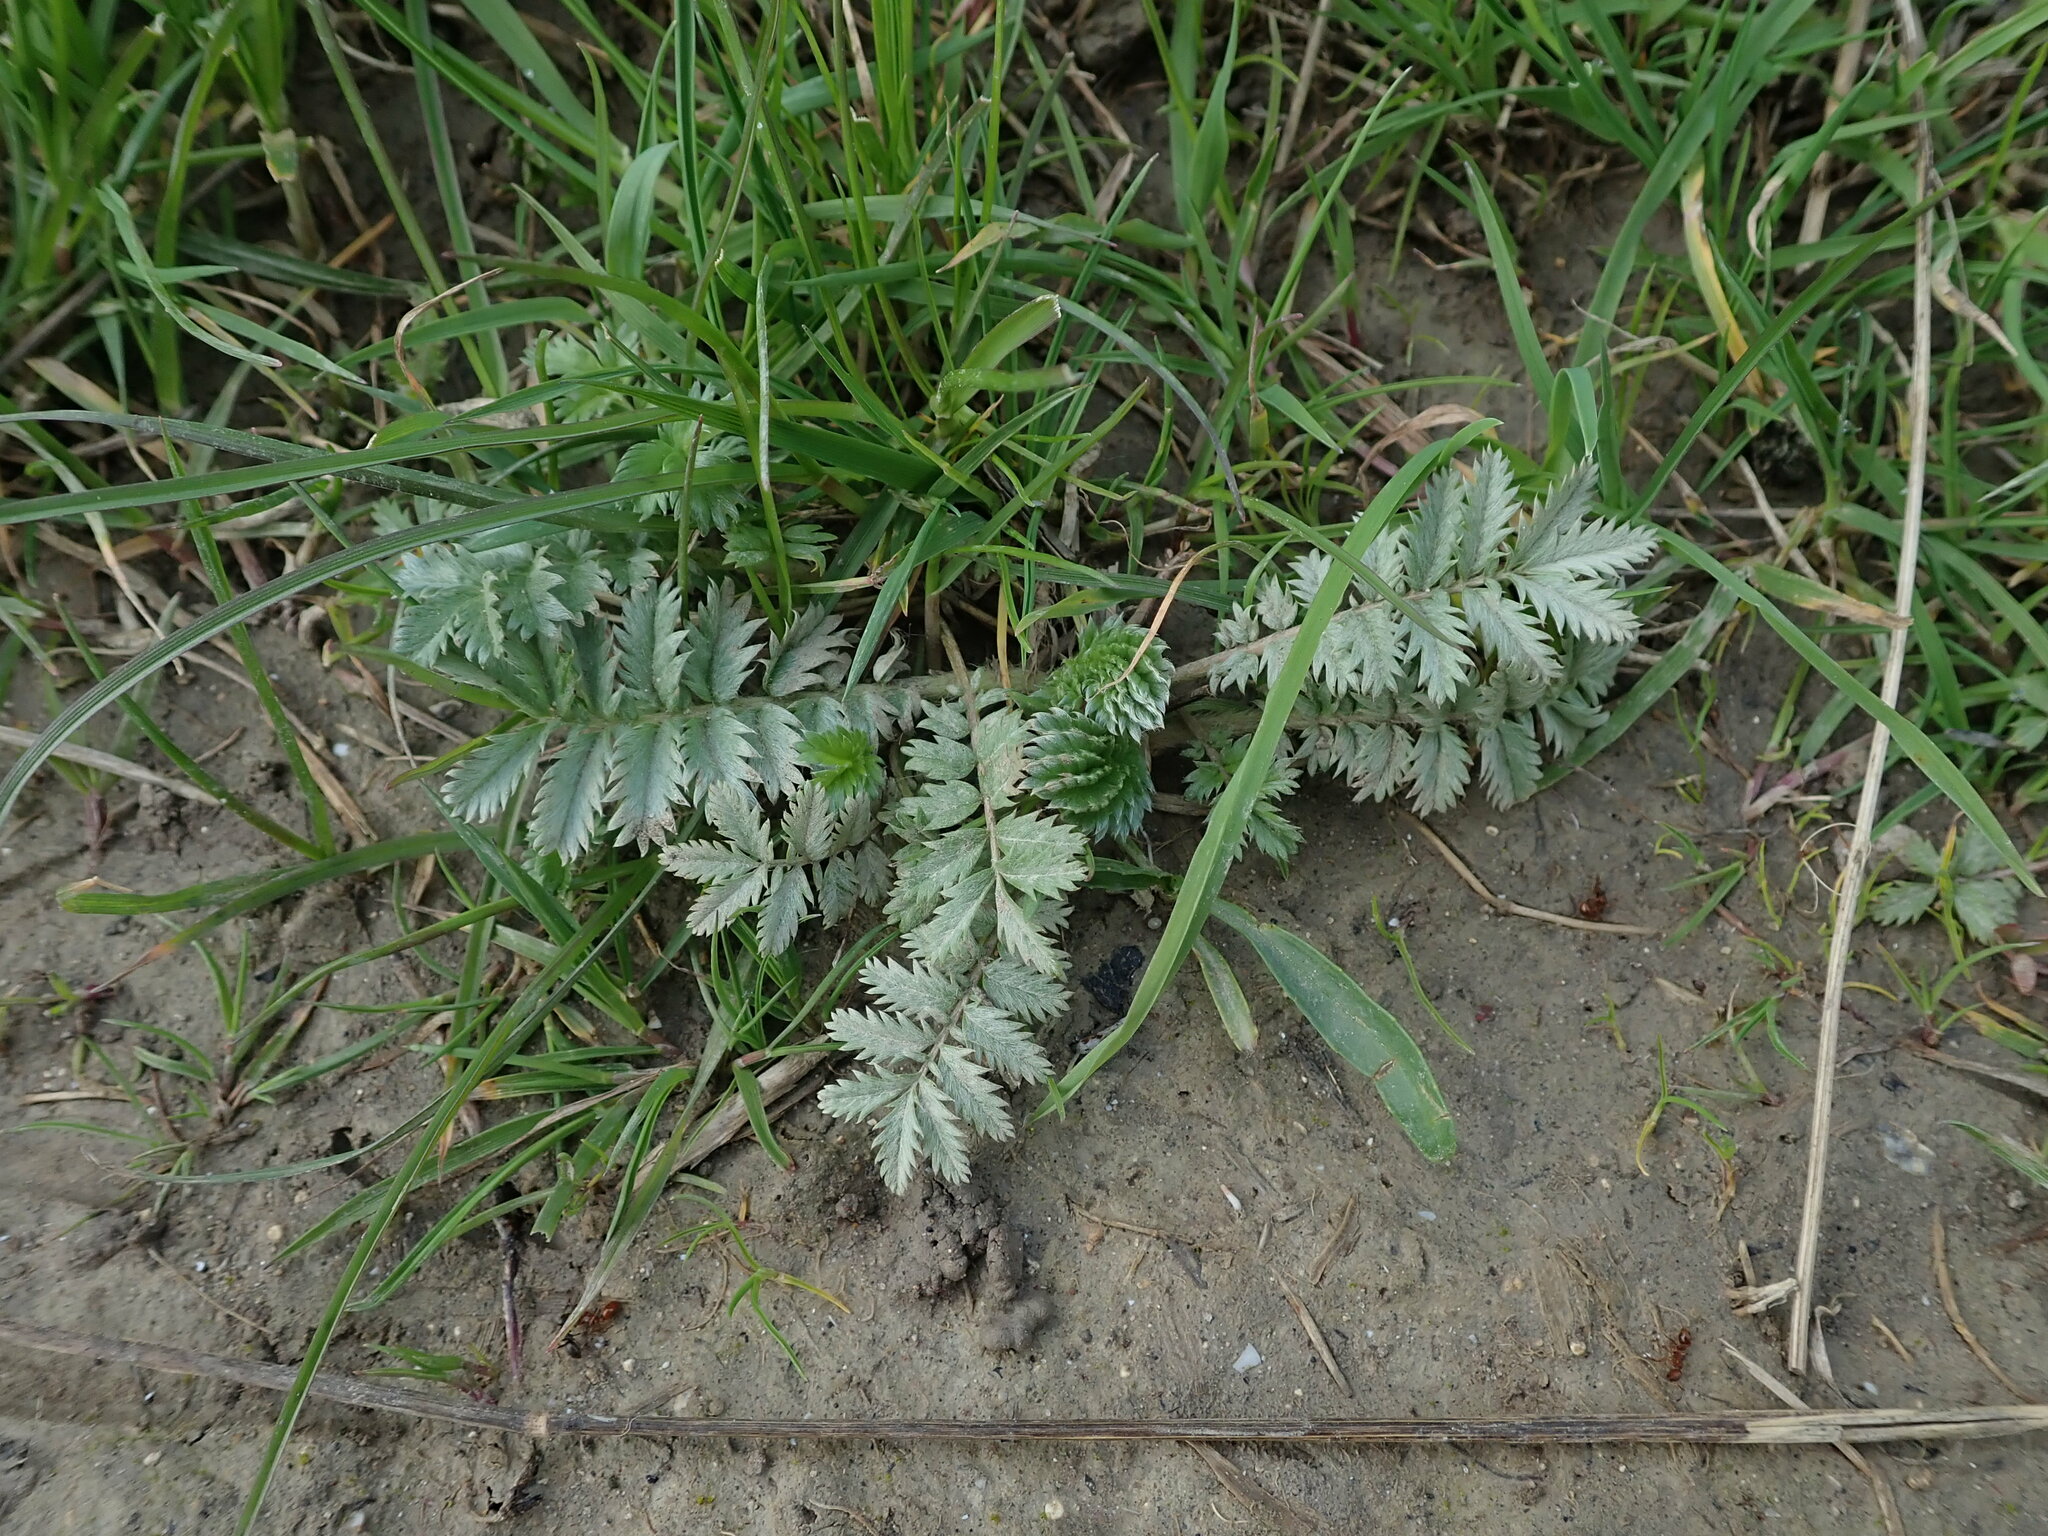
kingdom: Plantae
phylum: Tracheophyta
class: Magnoliopsida
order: Rosales
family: Rosaceae
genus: Argentina
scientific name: Argentina anserina
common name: Common silverweed
